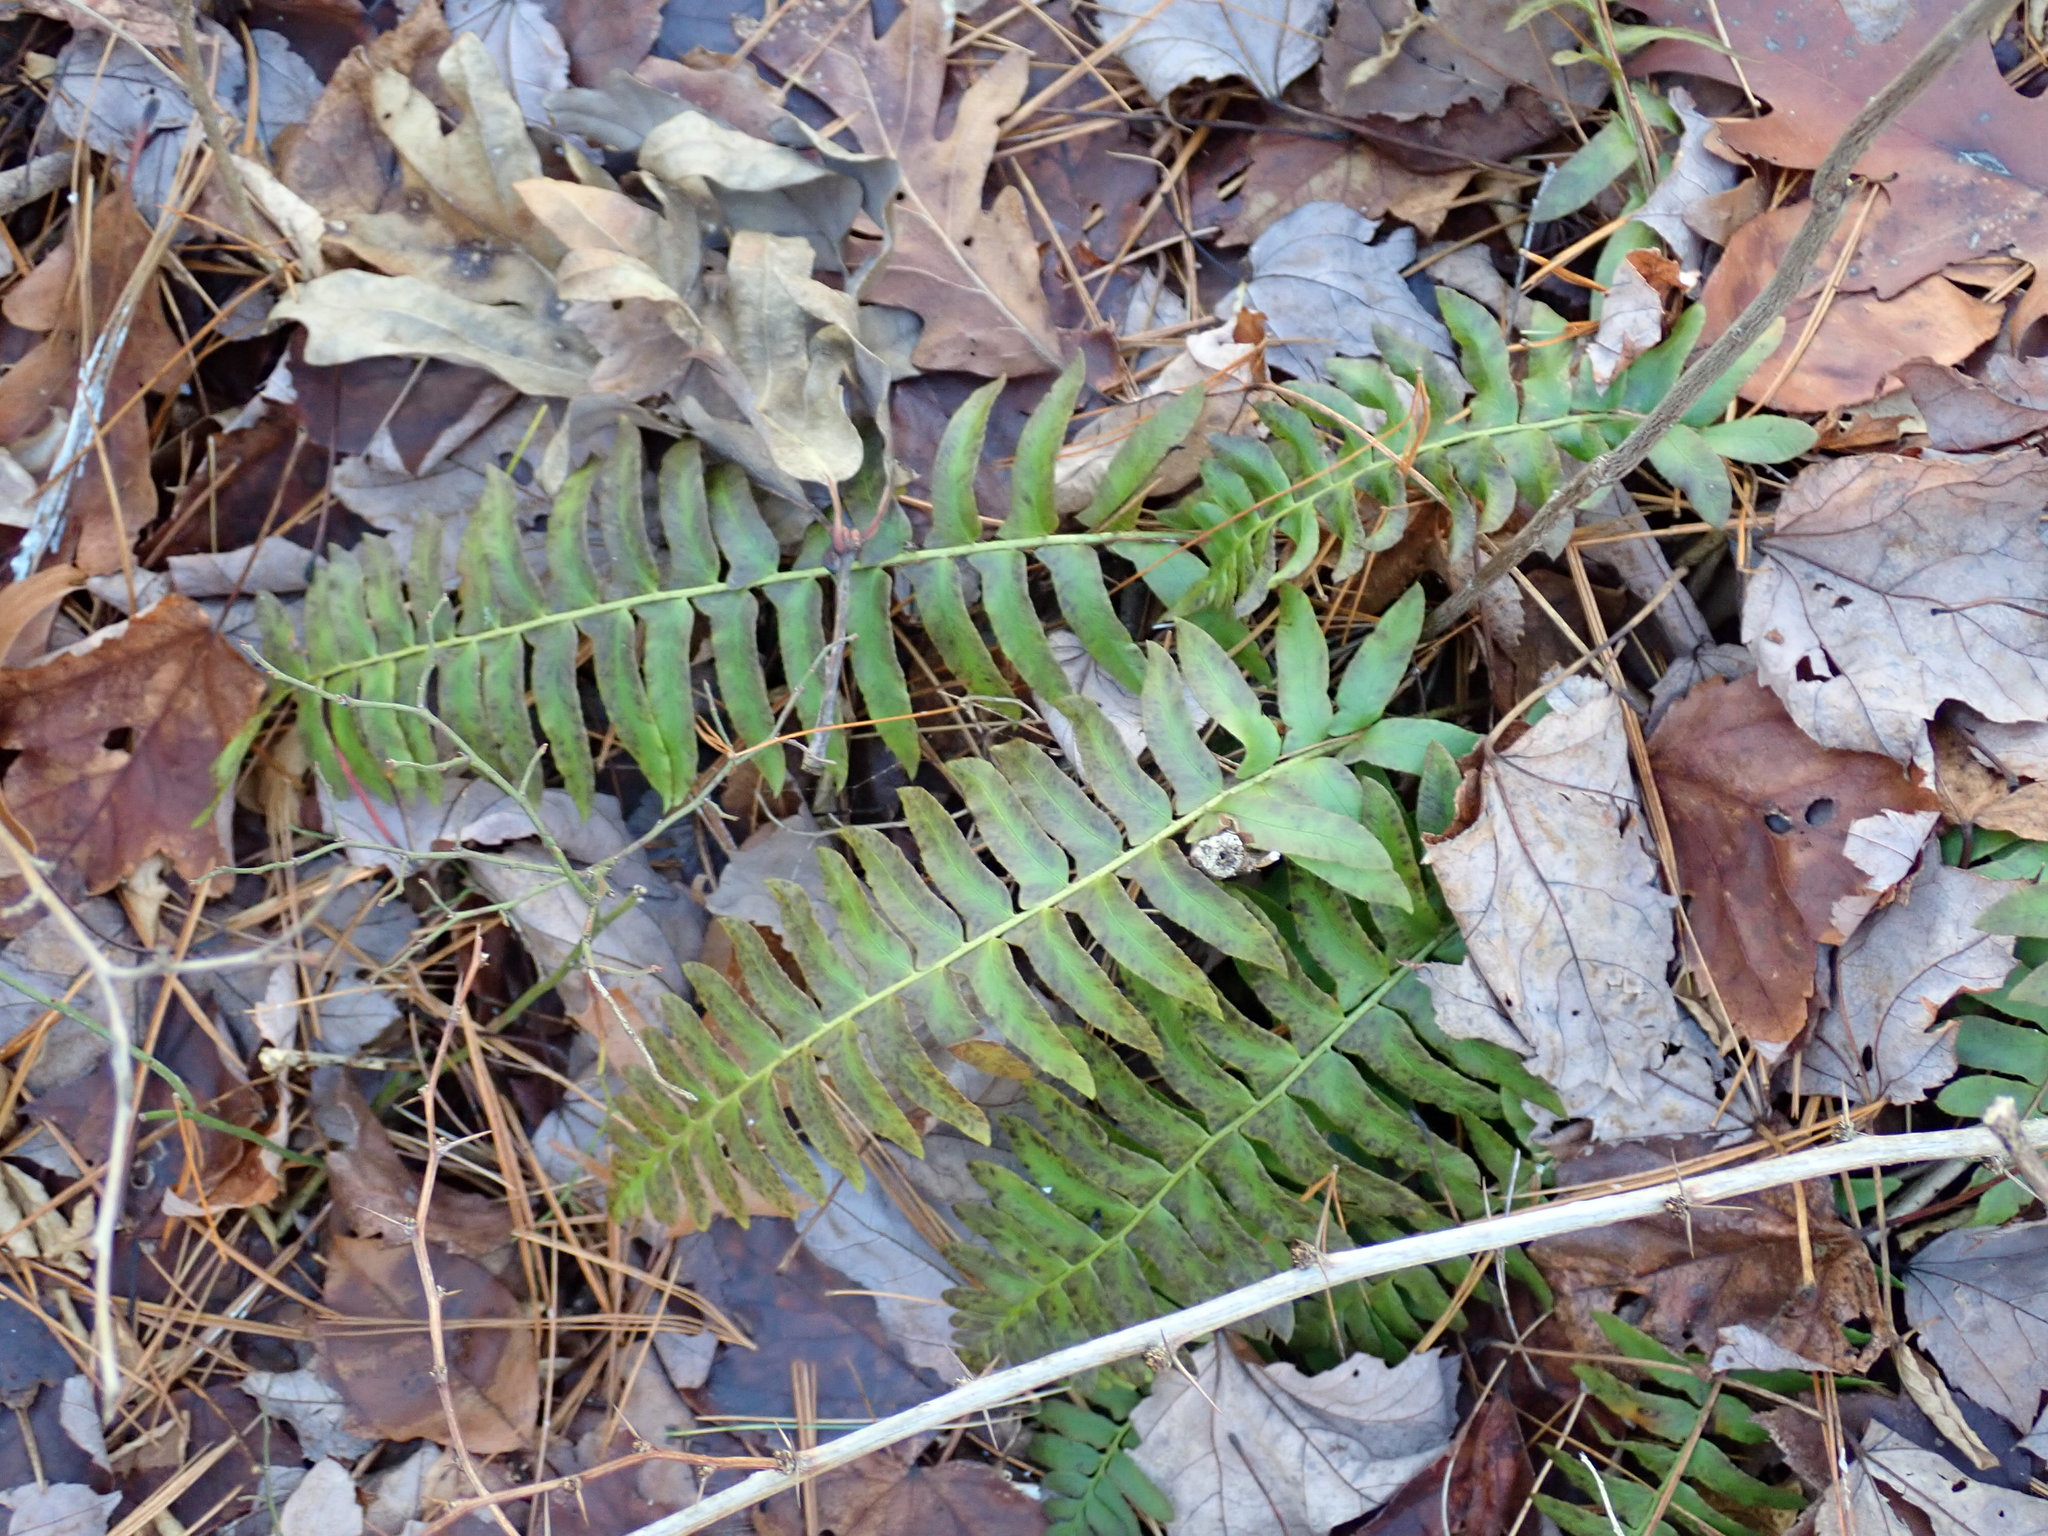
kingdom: Plantae
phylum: Tracheophyta
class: Polypodiopsida
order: Polypodiales
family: Dryopteridaceae
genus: Polystichum
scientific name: Polystichum acrostichoides
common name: Christmas fern
